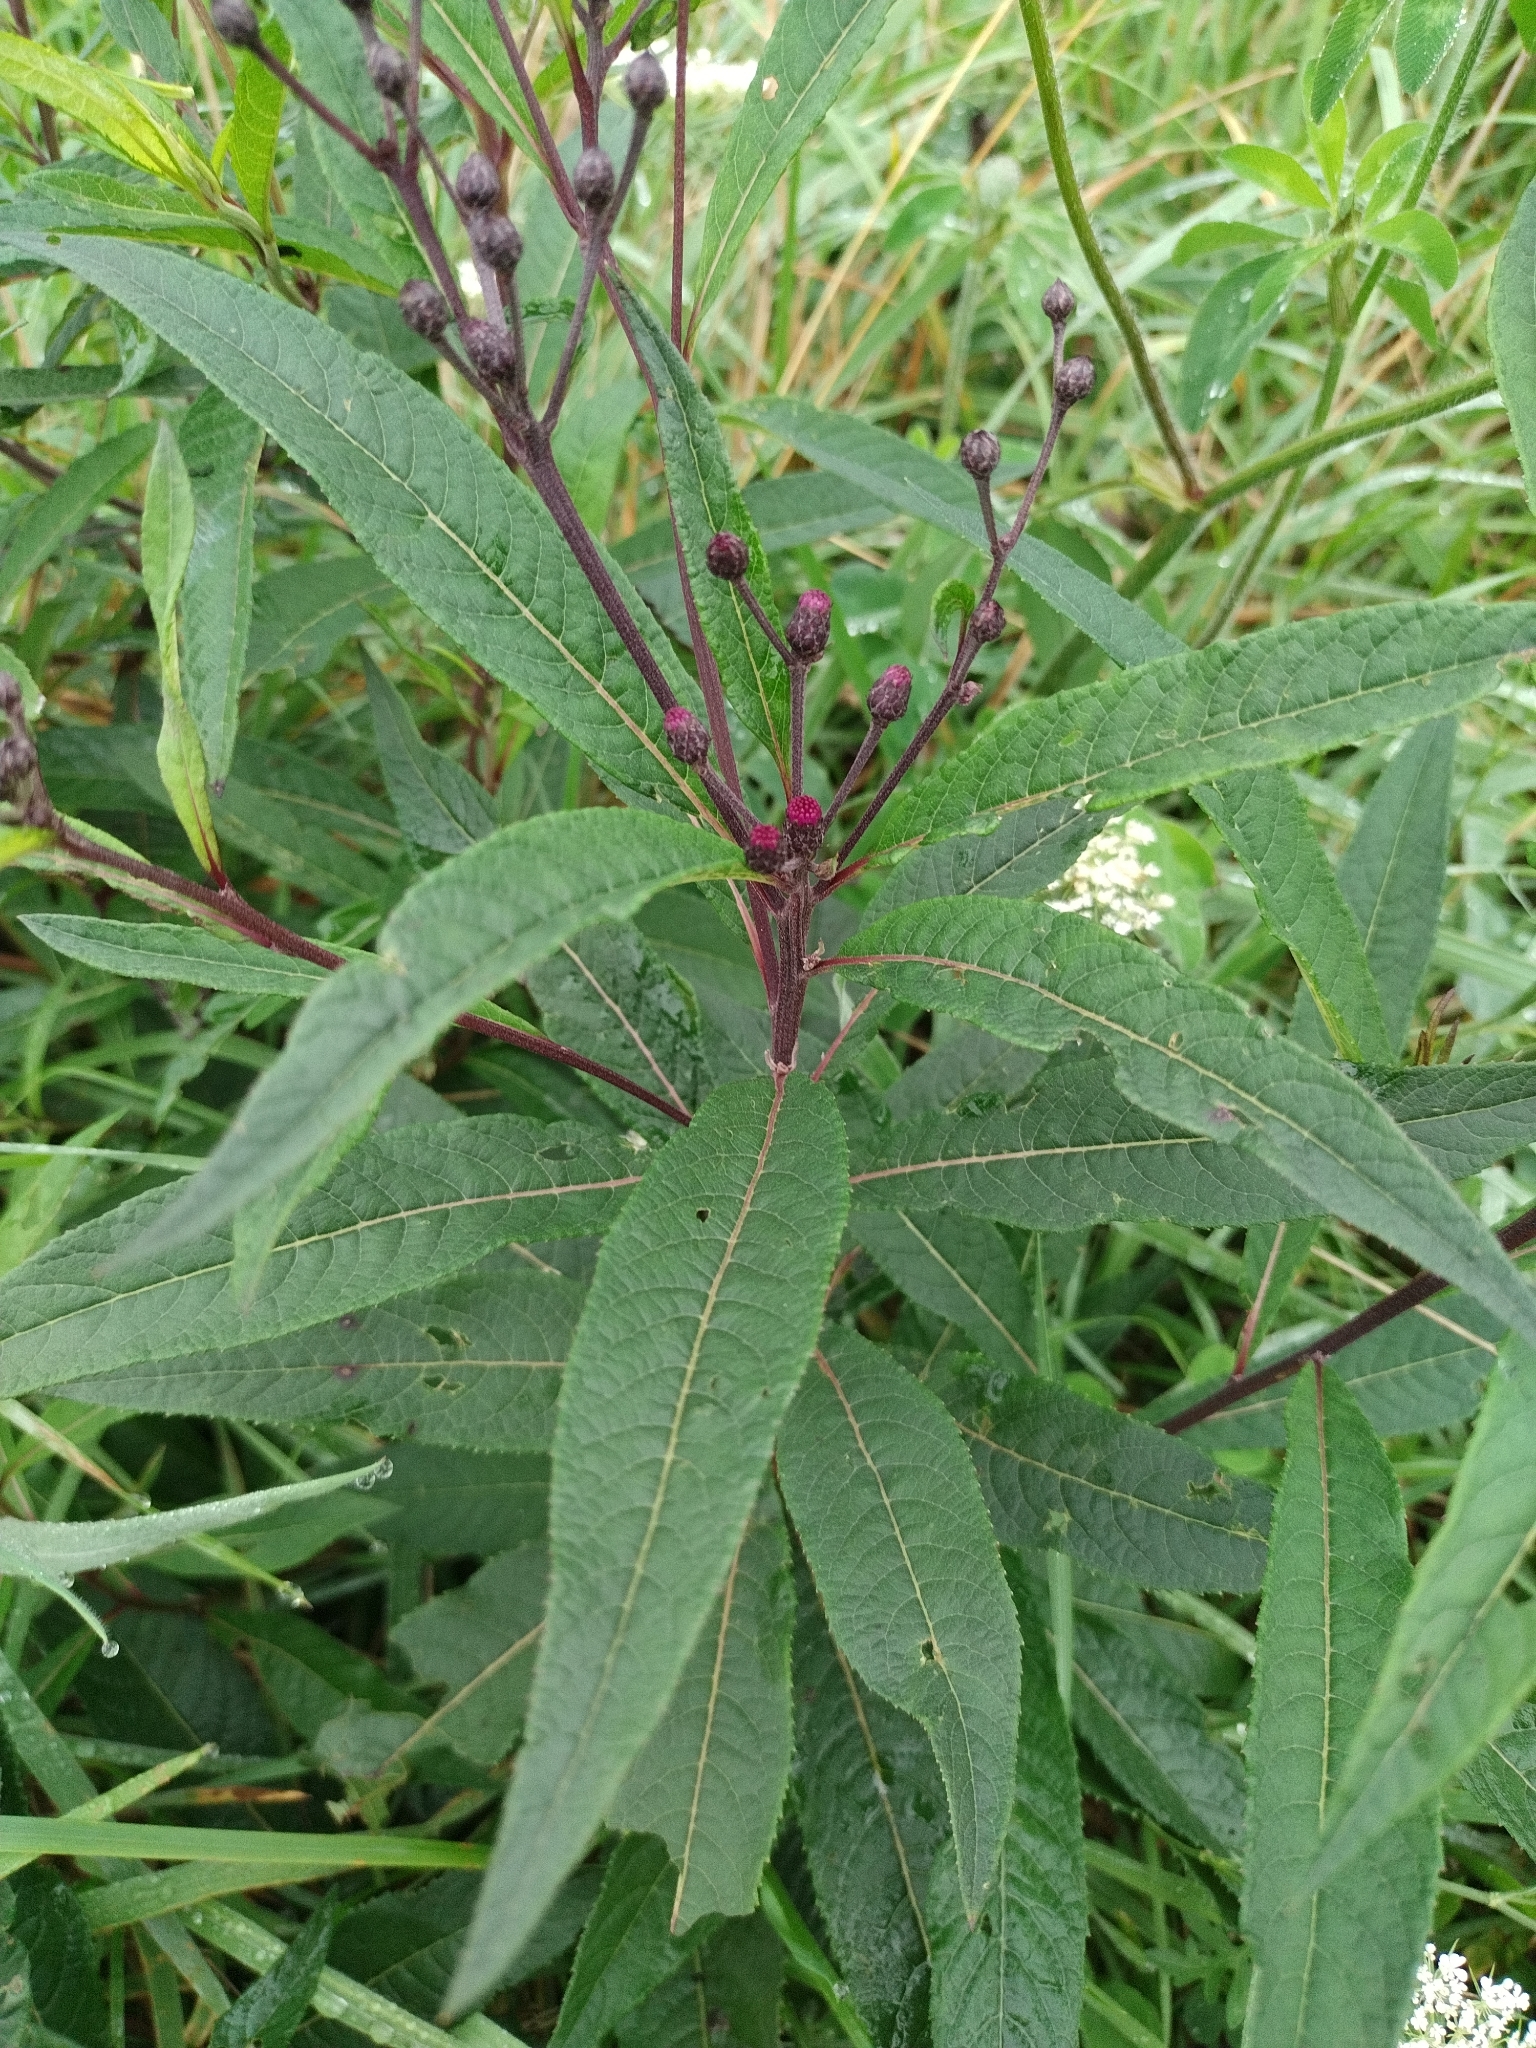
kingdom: Plantae
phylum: Tracheophyta
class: Magnoliopsida
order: Asterales
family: Asteraceae
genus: Vernonia
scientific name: Vernonia noveboracensis
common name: New york ironweed
